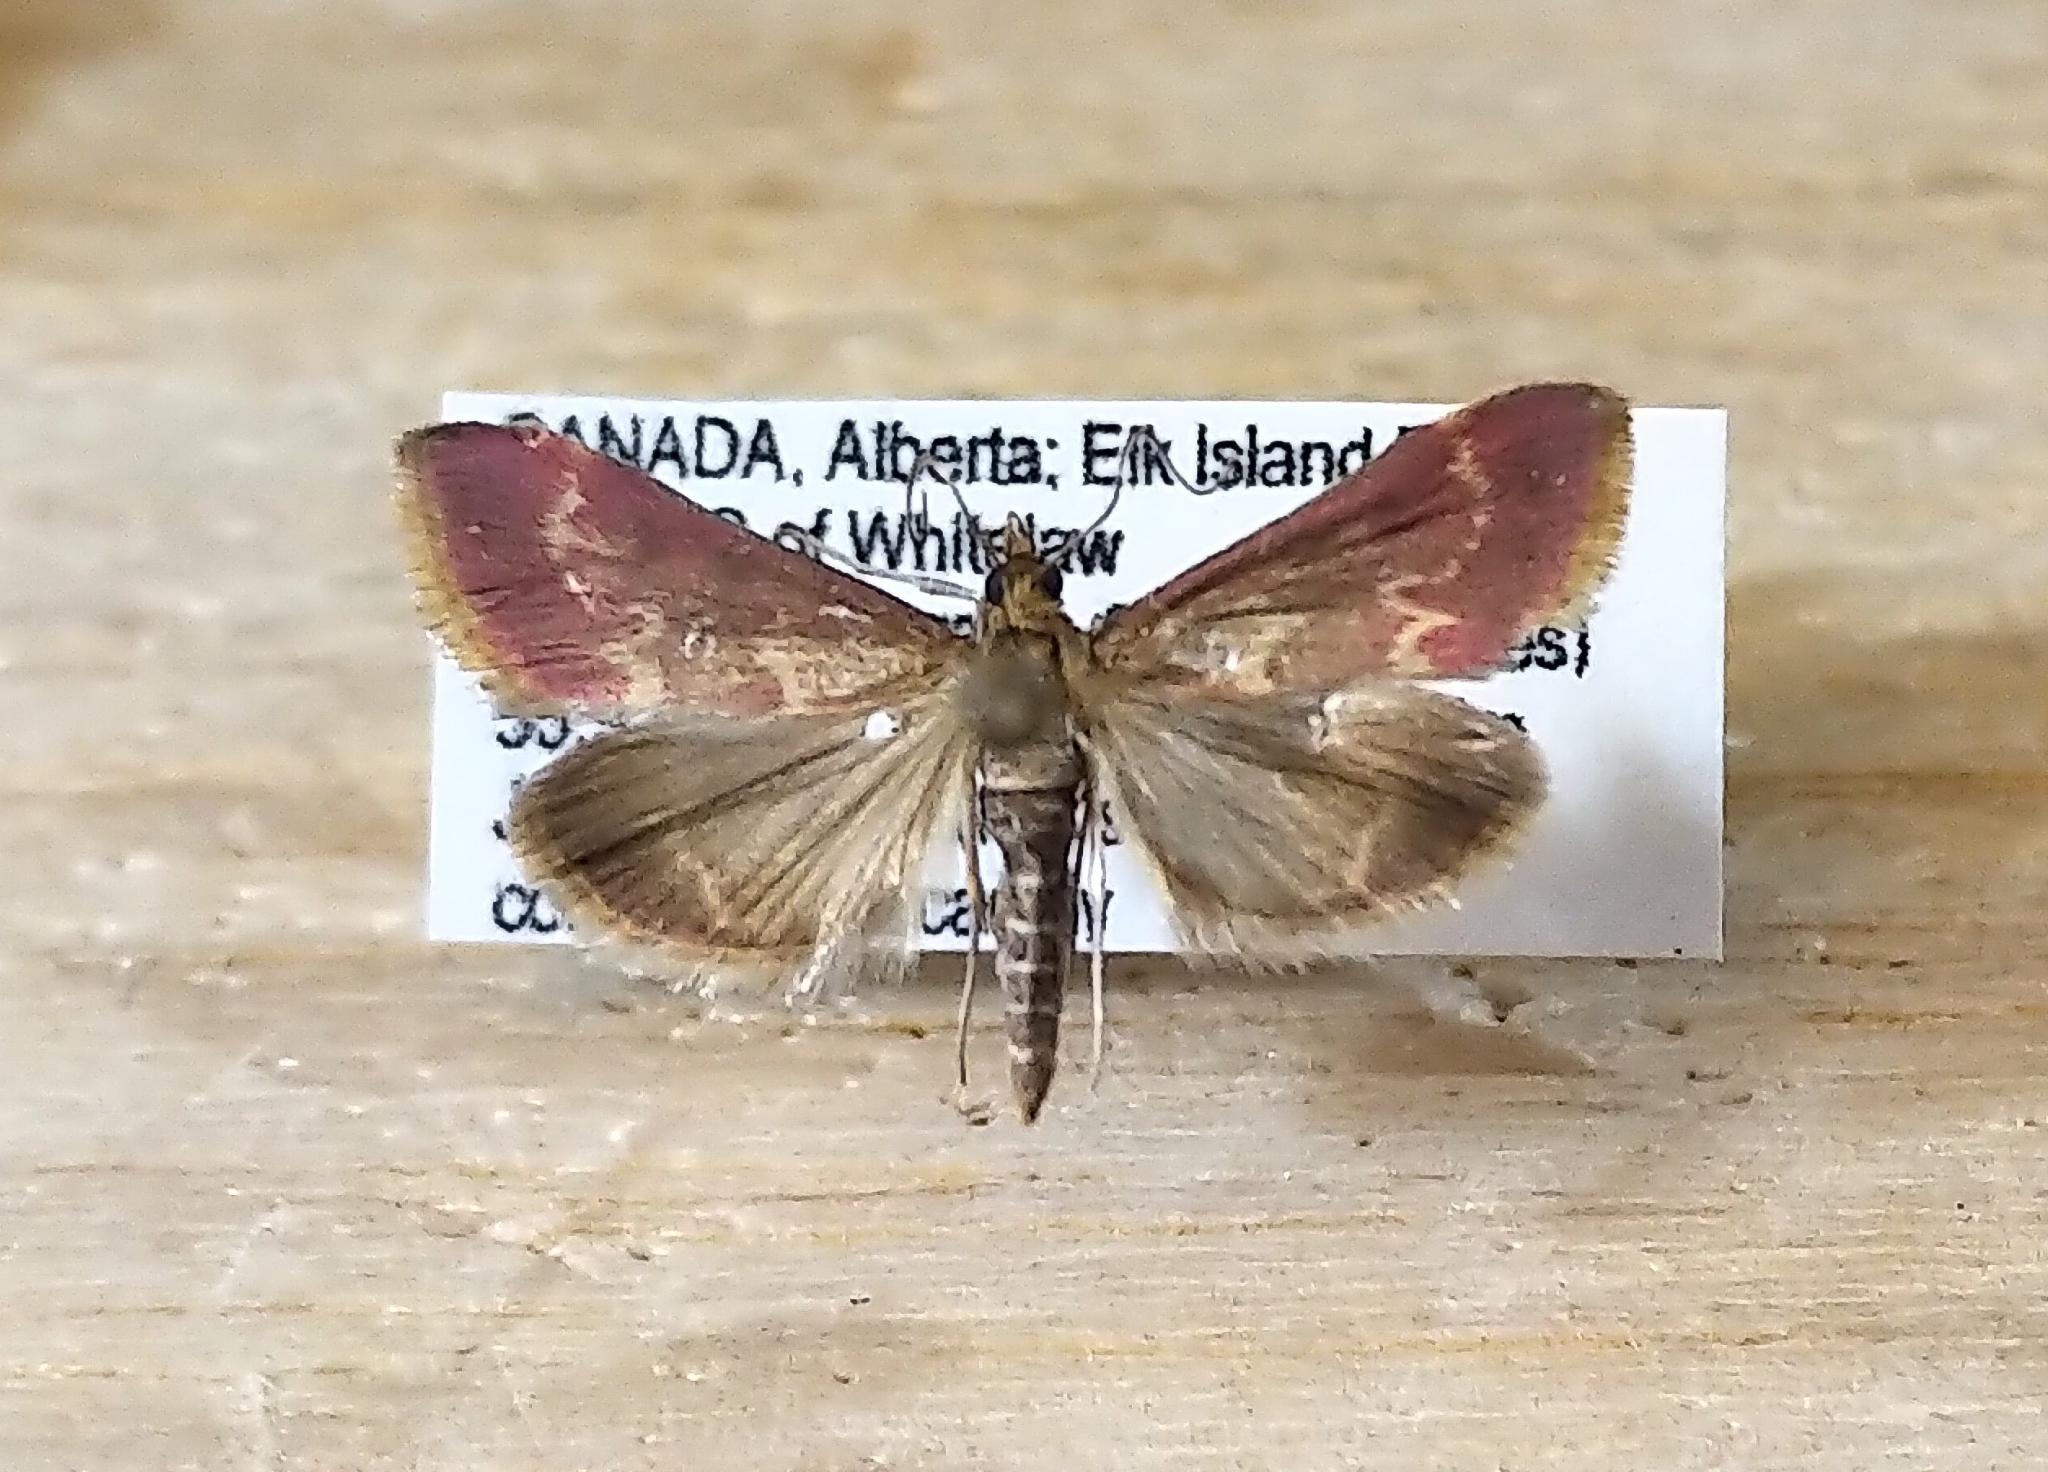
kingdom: Animalia
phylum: Arthropoda
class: Insecta
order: Lepidoptera
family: Crambidae
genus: Pyrausta
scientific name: Pyrausta signatalis
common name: Raspberry pyrausta moth
